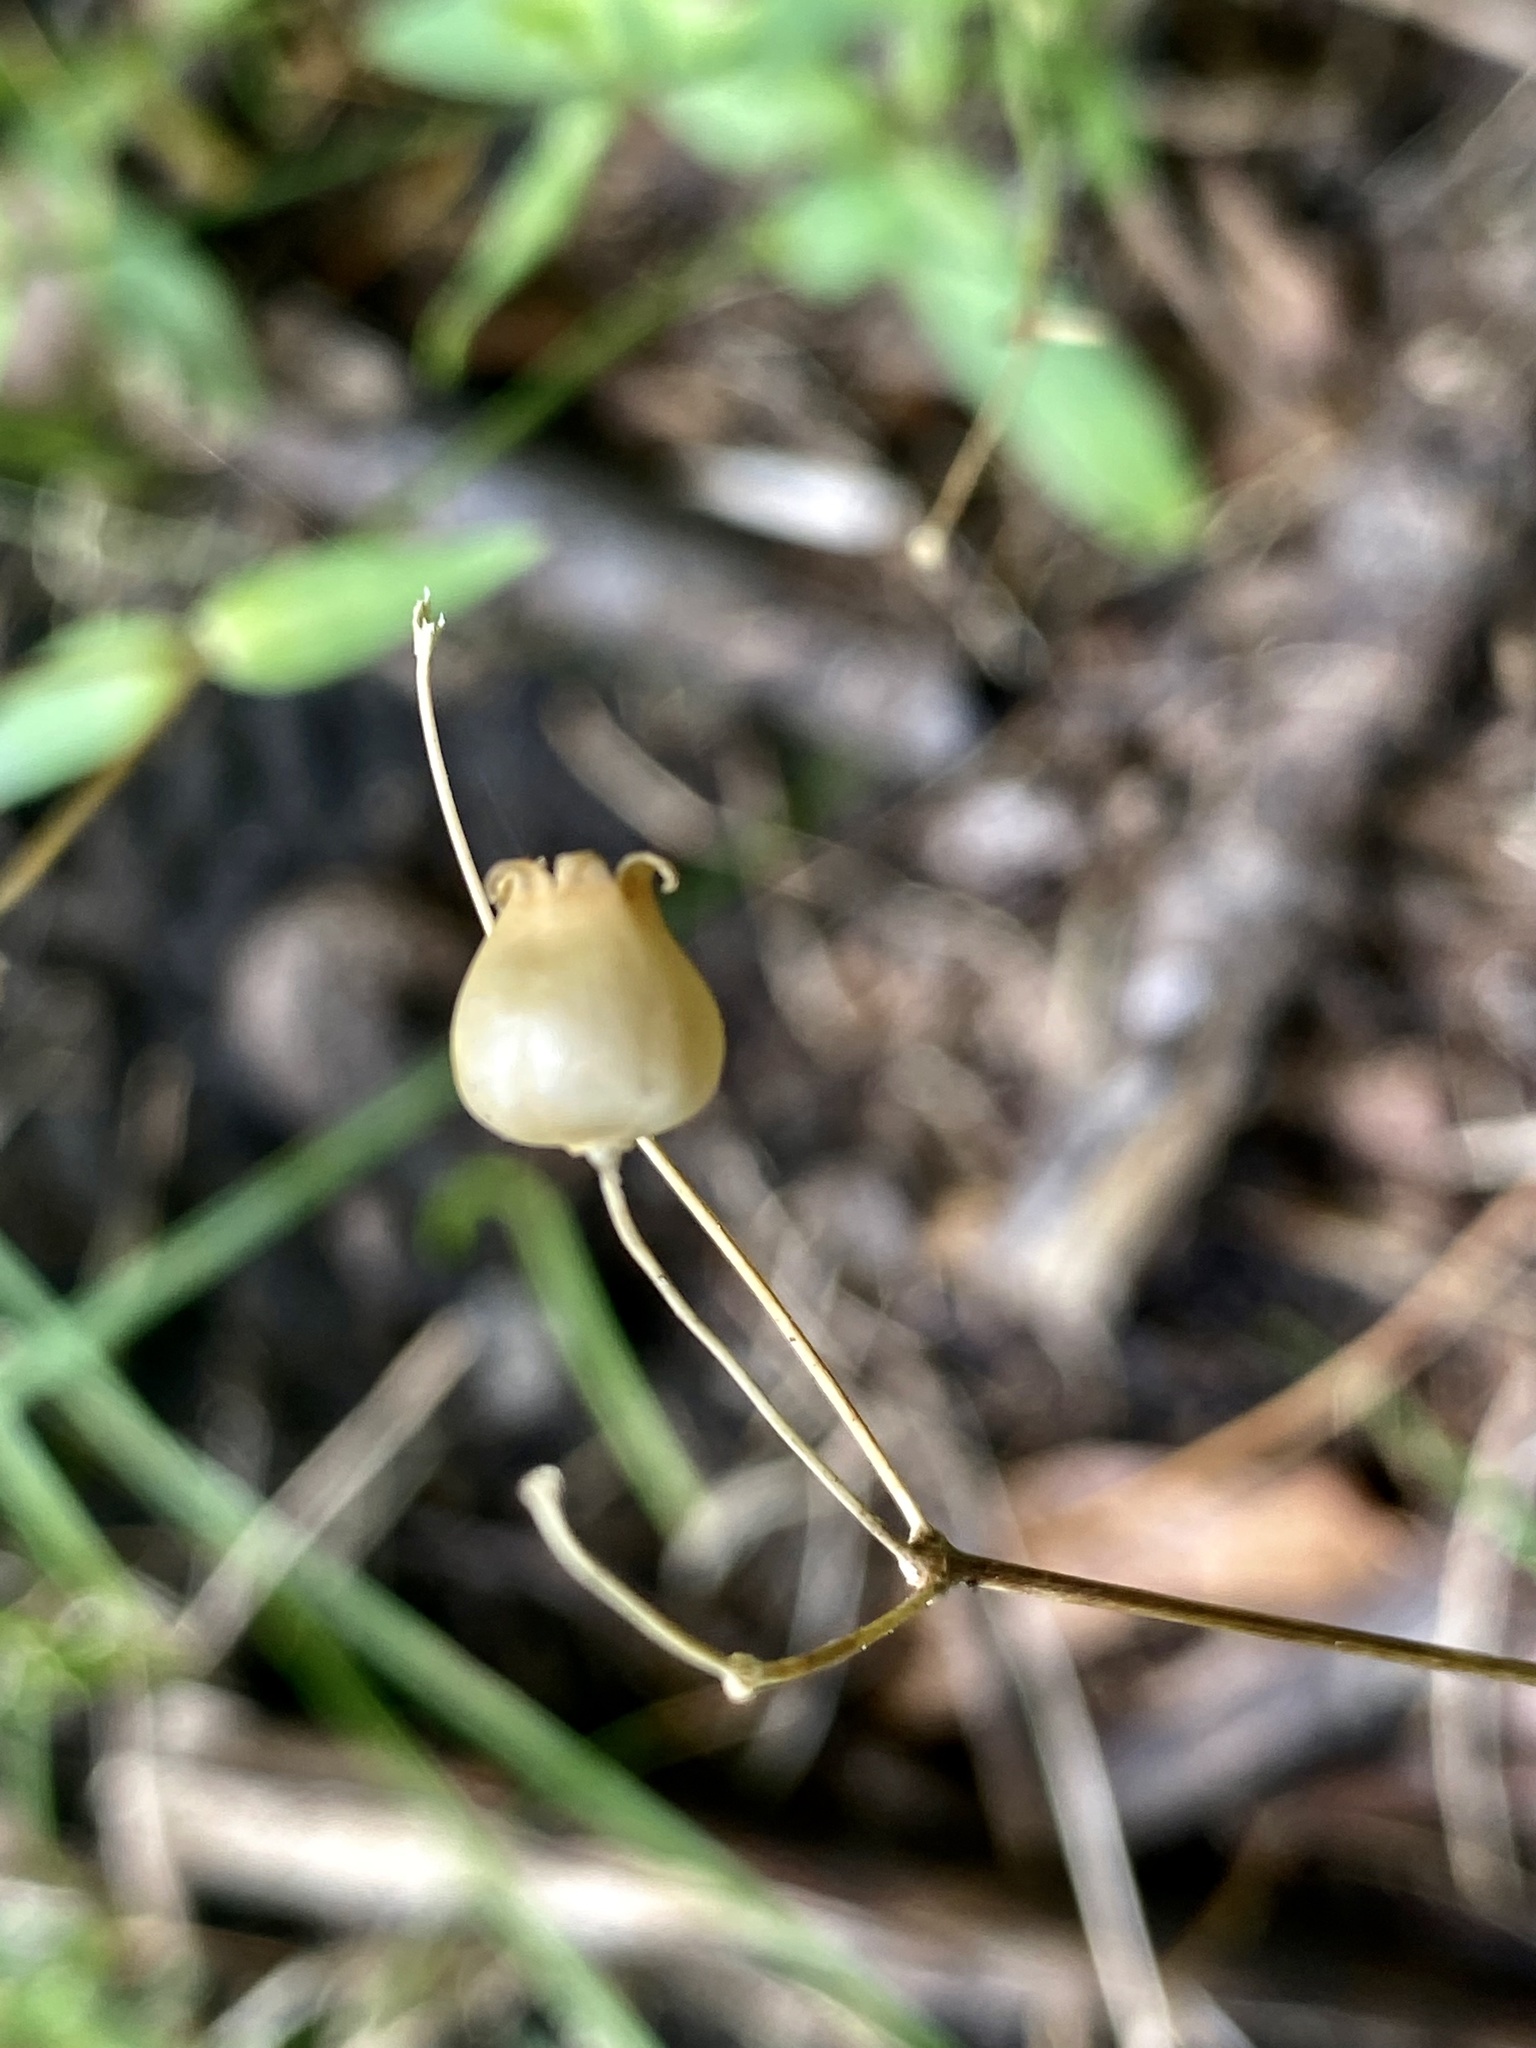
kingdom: Plantae
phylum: Tracheophyta
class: Magnoliopsida
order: Caryophyllales
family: Caryophyllaceae
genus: Silene
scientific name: Silene latifolia
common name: White campion
